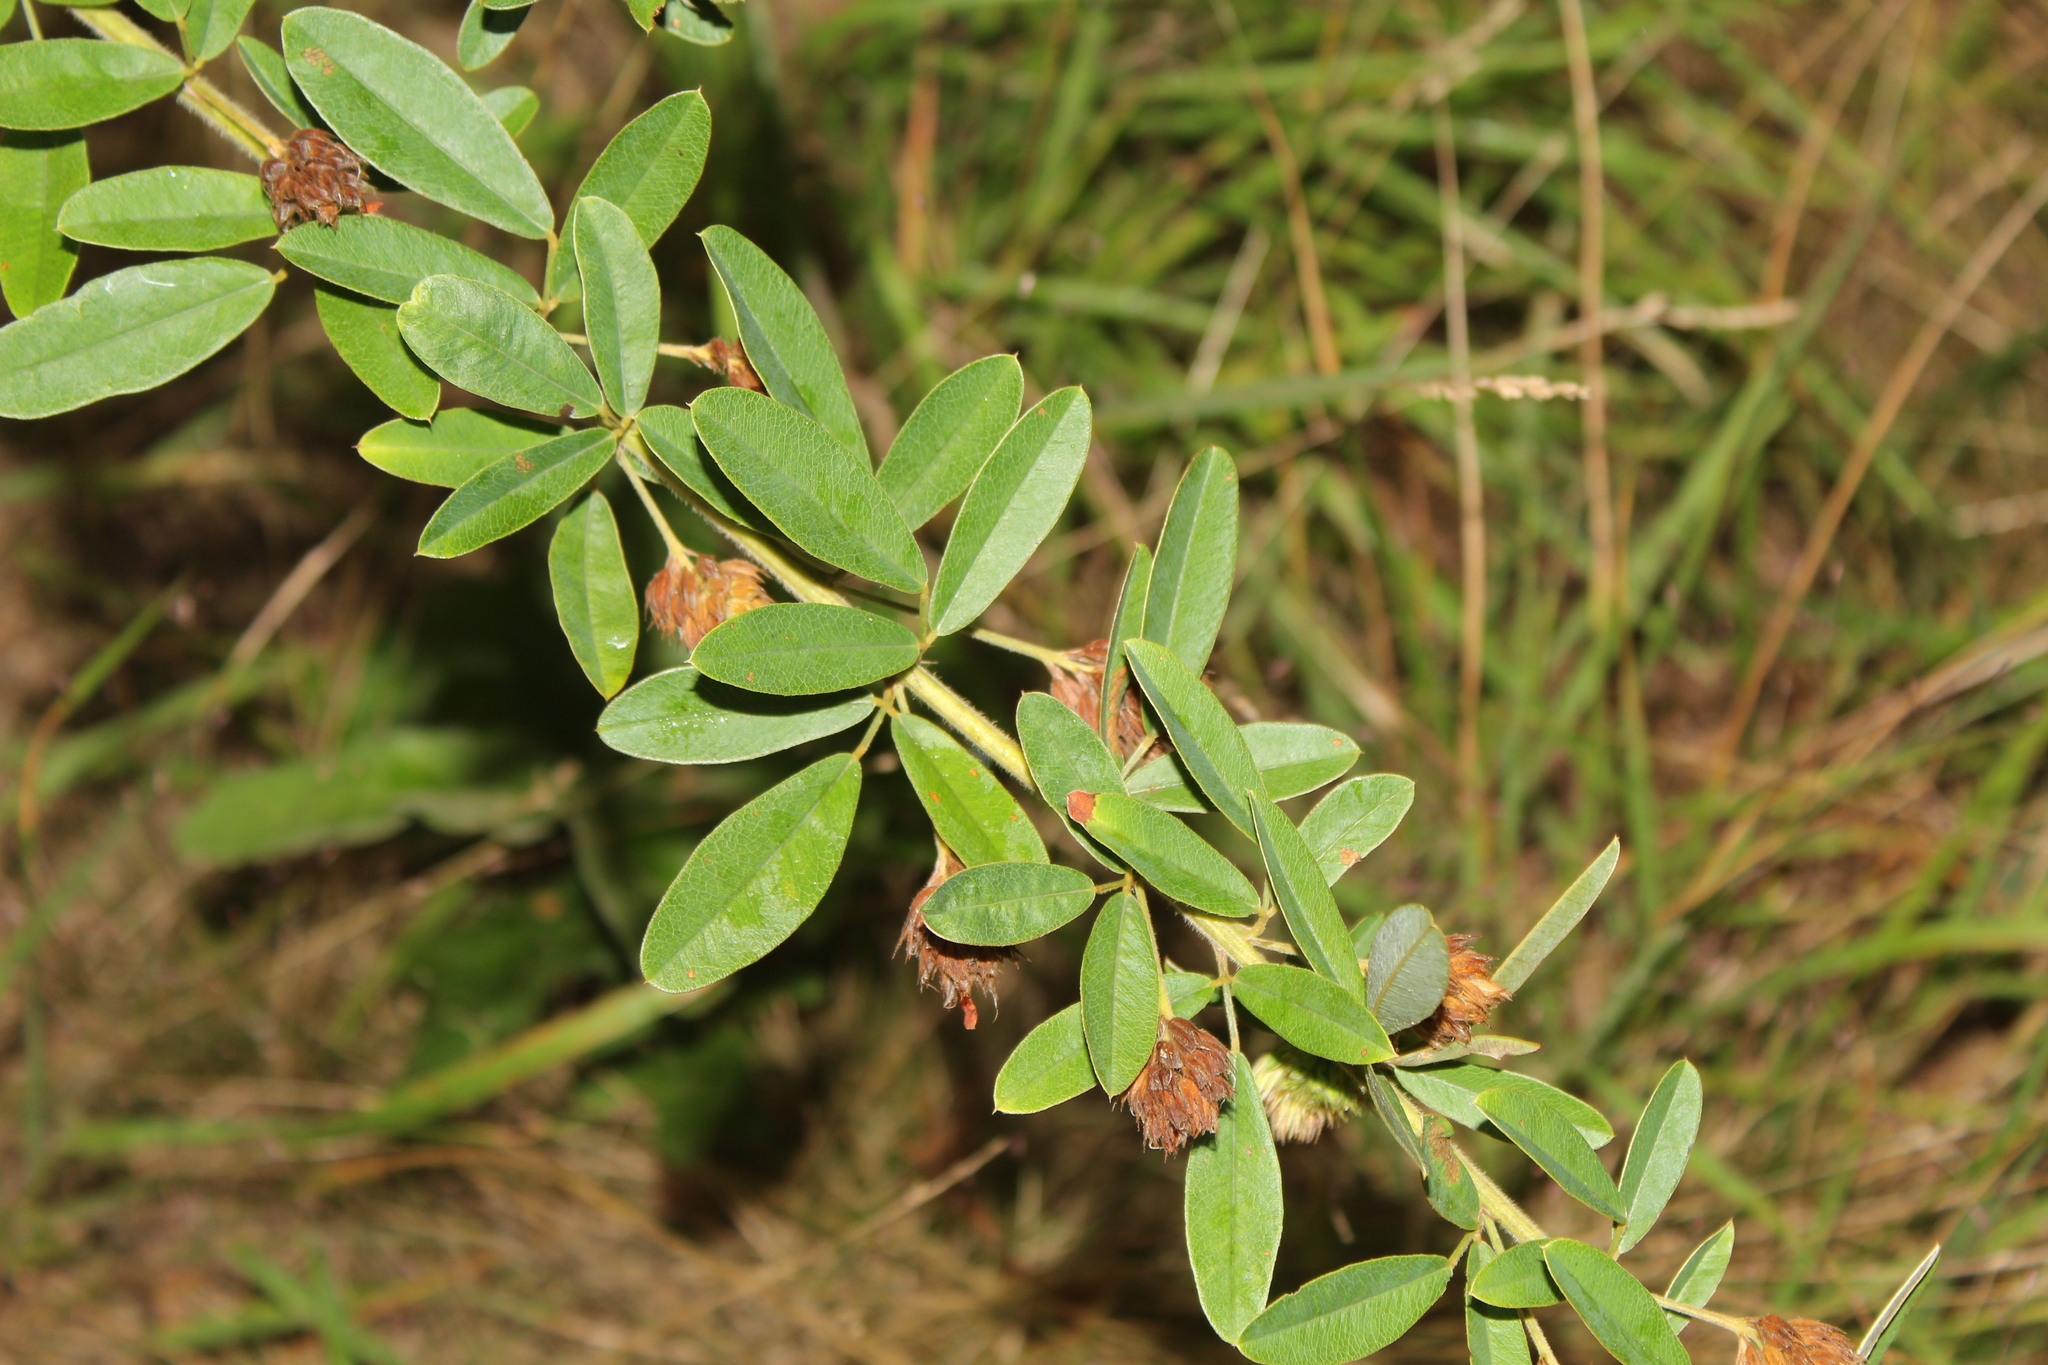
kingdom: Plantae
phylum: Tracheophyta
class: Magnoliopsida
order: Fabales
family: Fabaceae
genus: Lespedeza
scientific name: Lespedeza capitata
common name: Dusty clover
